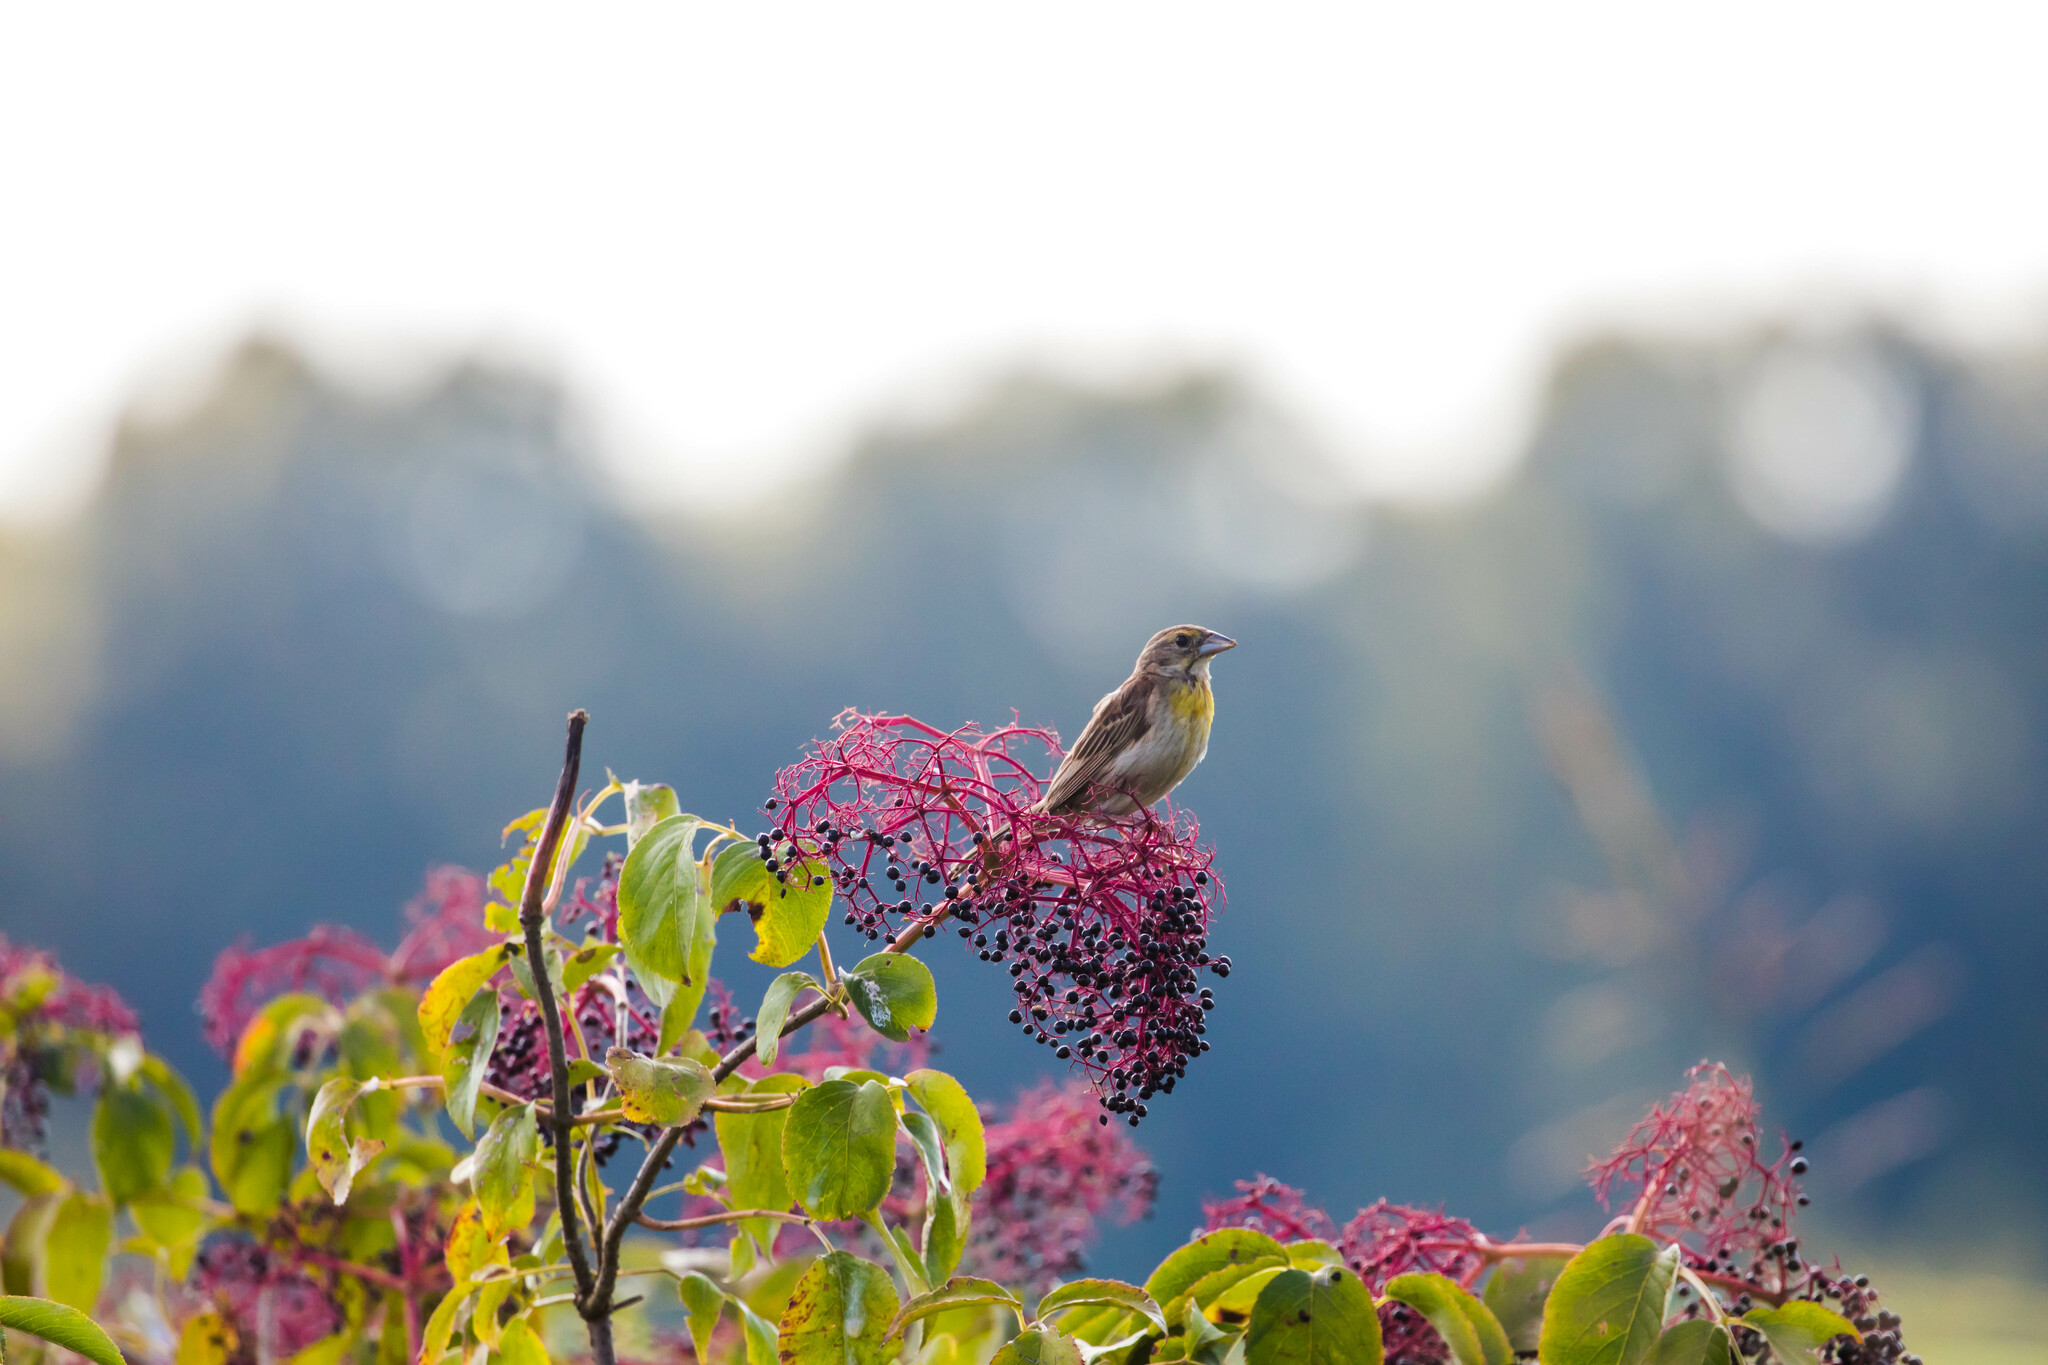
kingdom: Animalia
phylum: Chordata
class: Aves
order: Passeriformes
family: Cardinalidae
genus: Spiza
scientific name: Spiza americana
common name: Dickcissel
